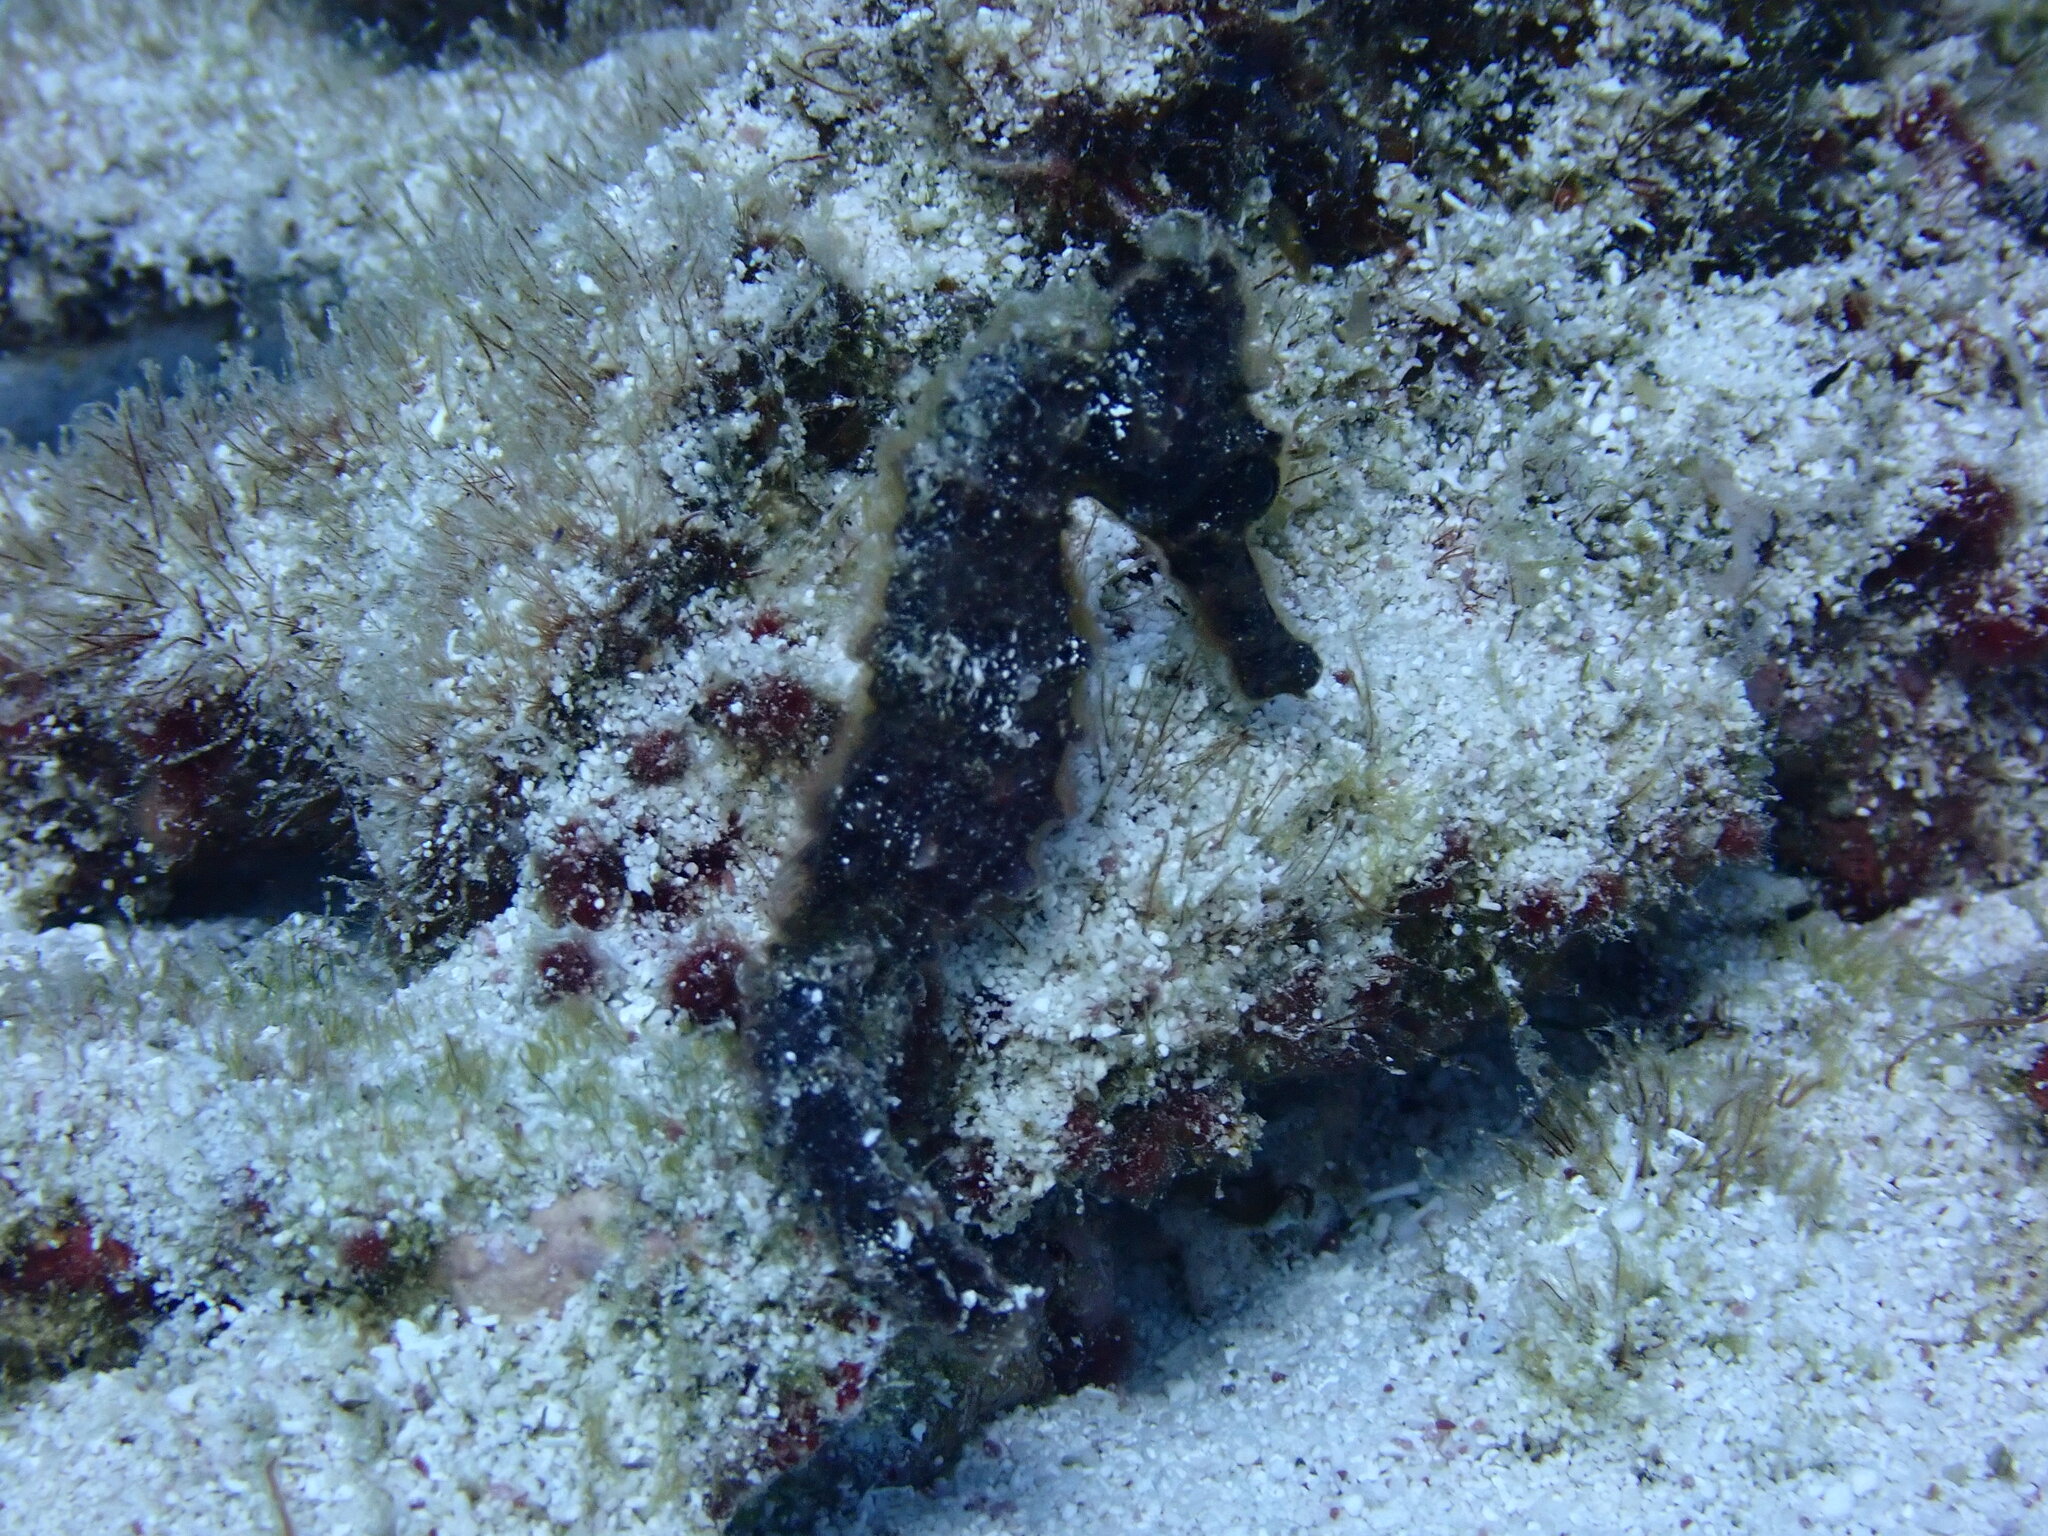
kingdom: Animalia
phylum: Chordata
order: Syngnathiformes
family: Syngnathidae
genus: Hippocampus
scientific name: Hippocampus reidi
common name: Slender seahorse
